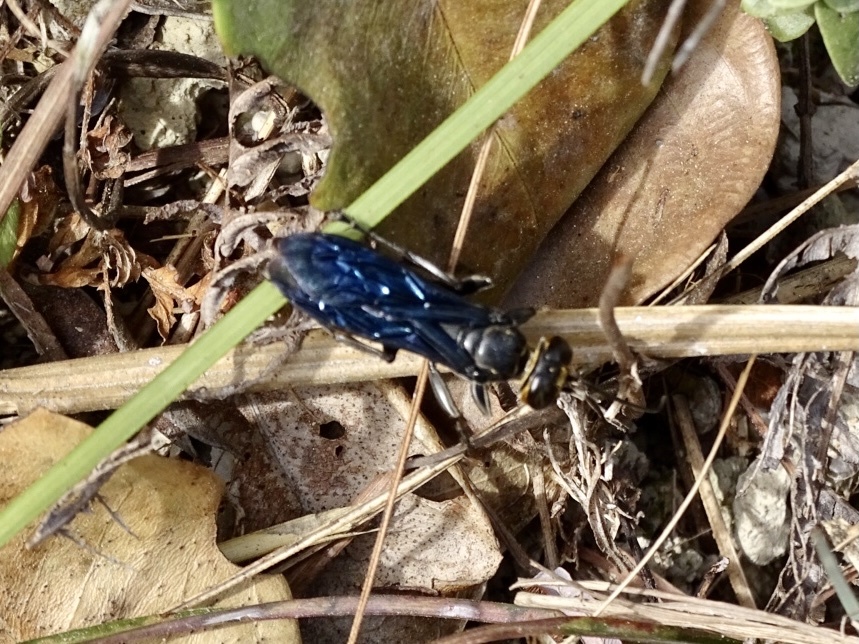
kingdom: Animalia
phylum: Arthropoda
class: Insecta
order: Hymenoptera
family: Crabronidae
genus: Liris
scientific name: Liris anthracinus
